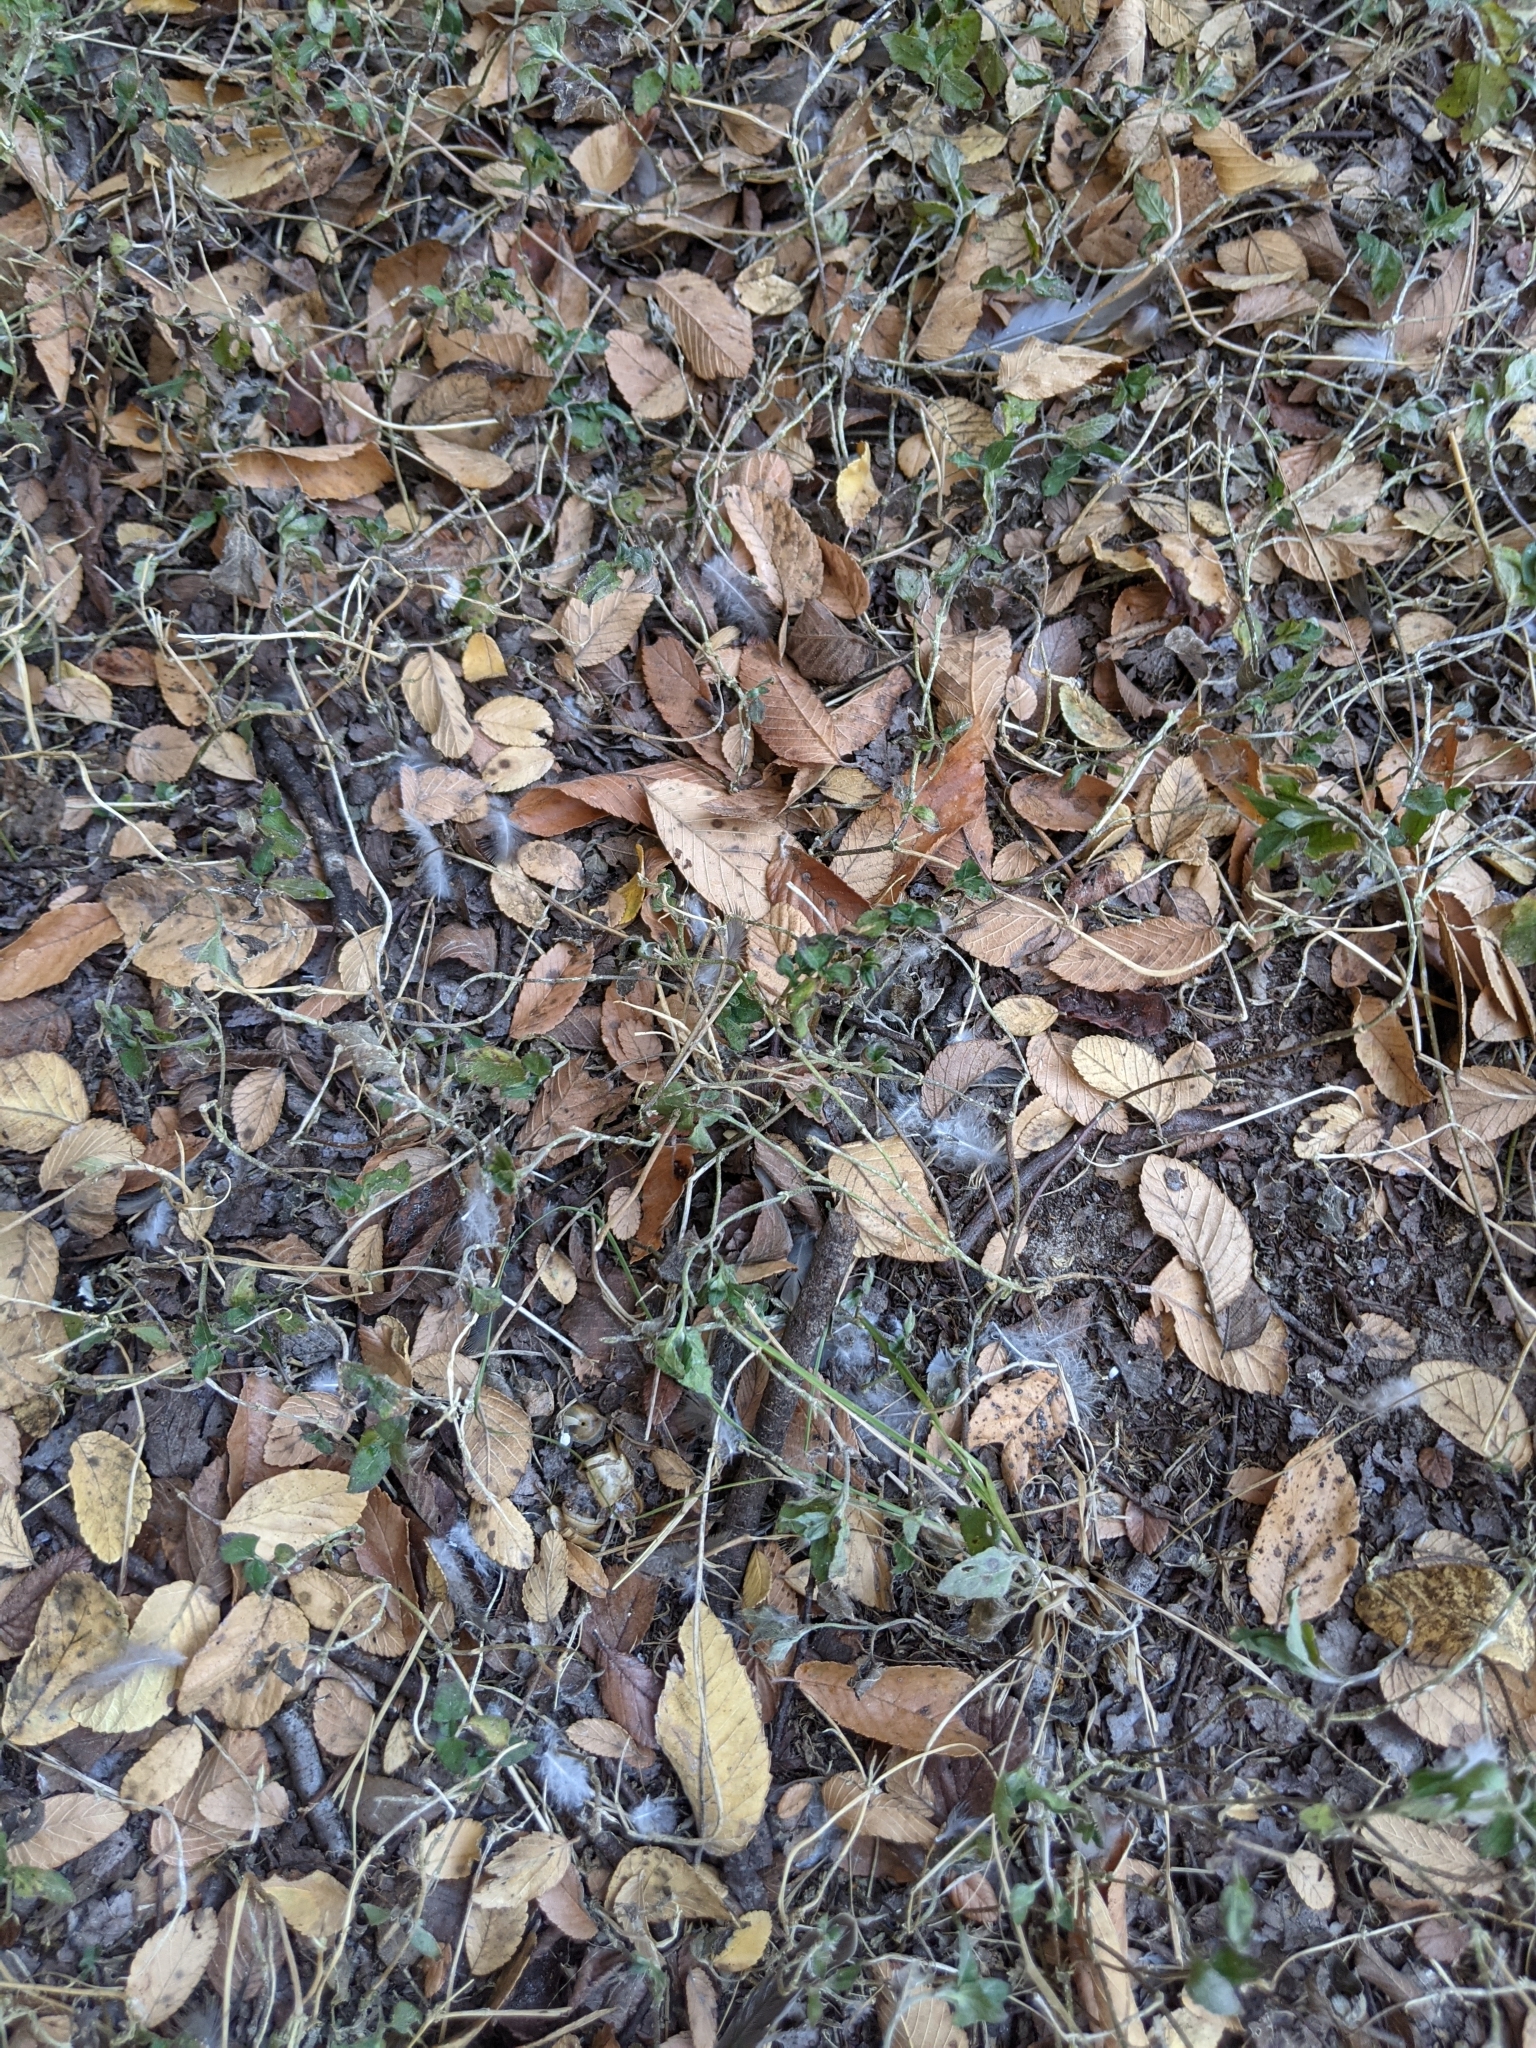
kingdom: Animalia
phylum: Chordata
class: Aves
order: Columbiformes
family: Columbidae
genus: Zenaida
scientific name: Zenaida macroura
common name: Mourning dove
